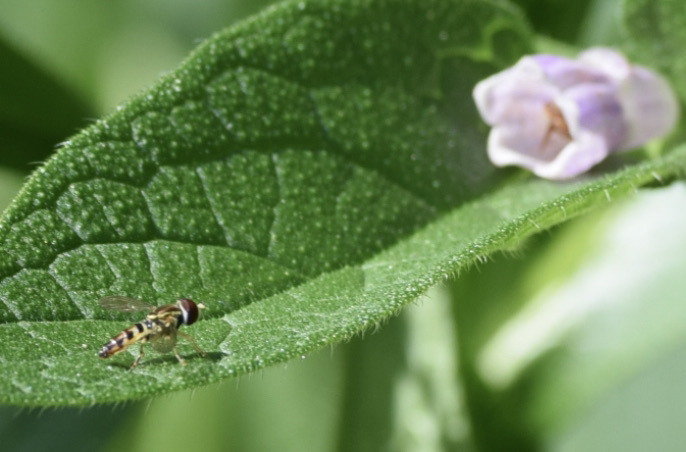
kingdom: Animalia
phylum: Arthropoda
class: Insecta
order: Diptera
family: Syrphidae
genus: Toxomerus
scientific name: Toxomerus geminatus
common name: Eastern calligrapher
